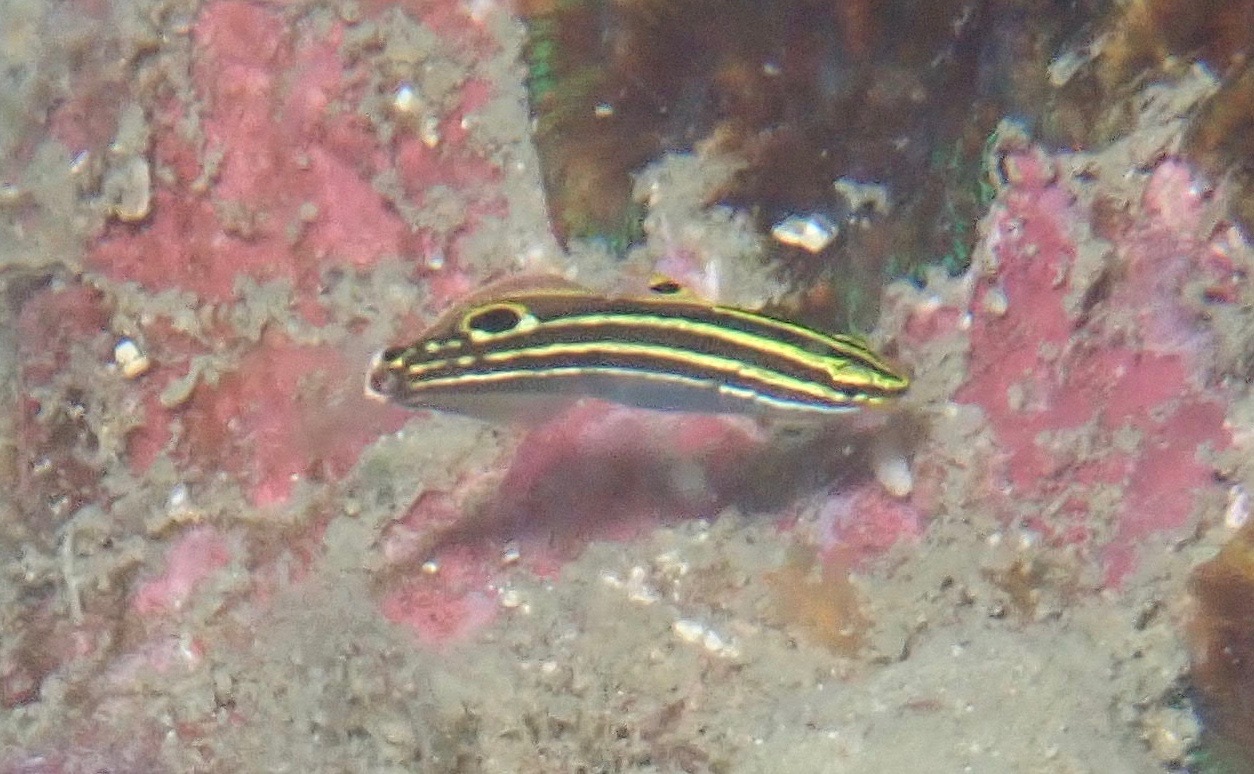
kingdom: Animalia
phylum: Chordata
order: Perciformes
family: Gobiidae
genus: Koumansetta
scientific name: Koumansetta hectori
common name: Hector's goby
